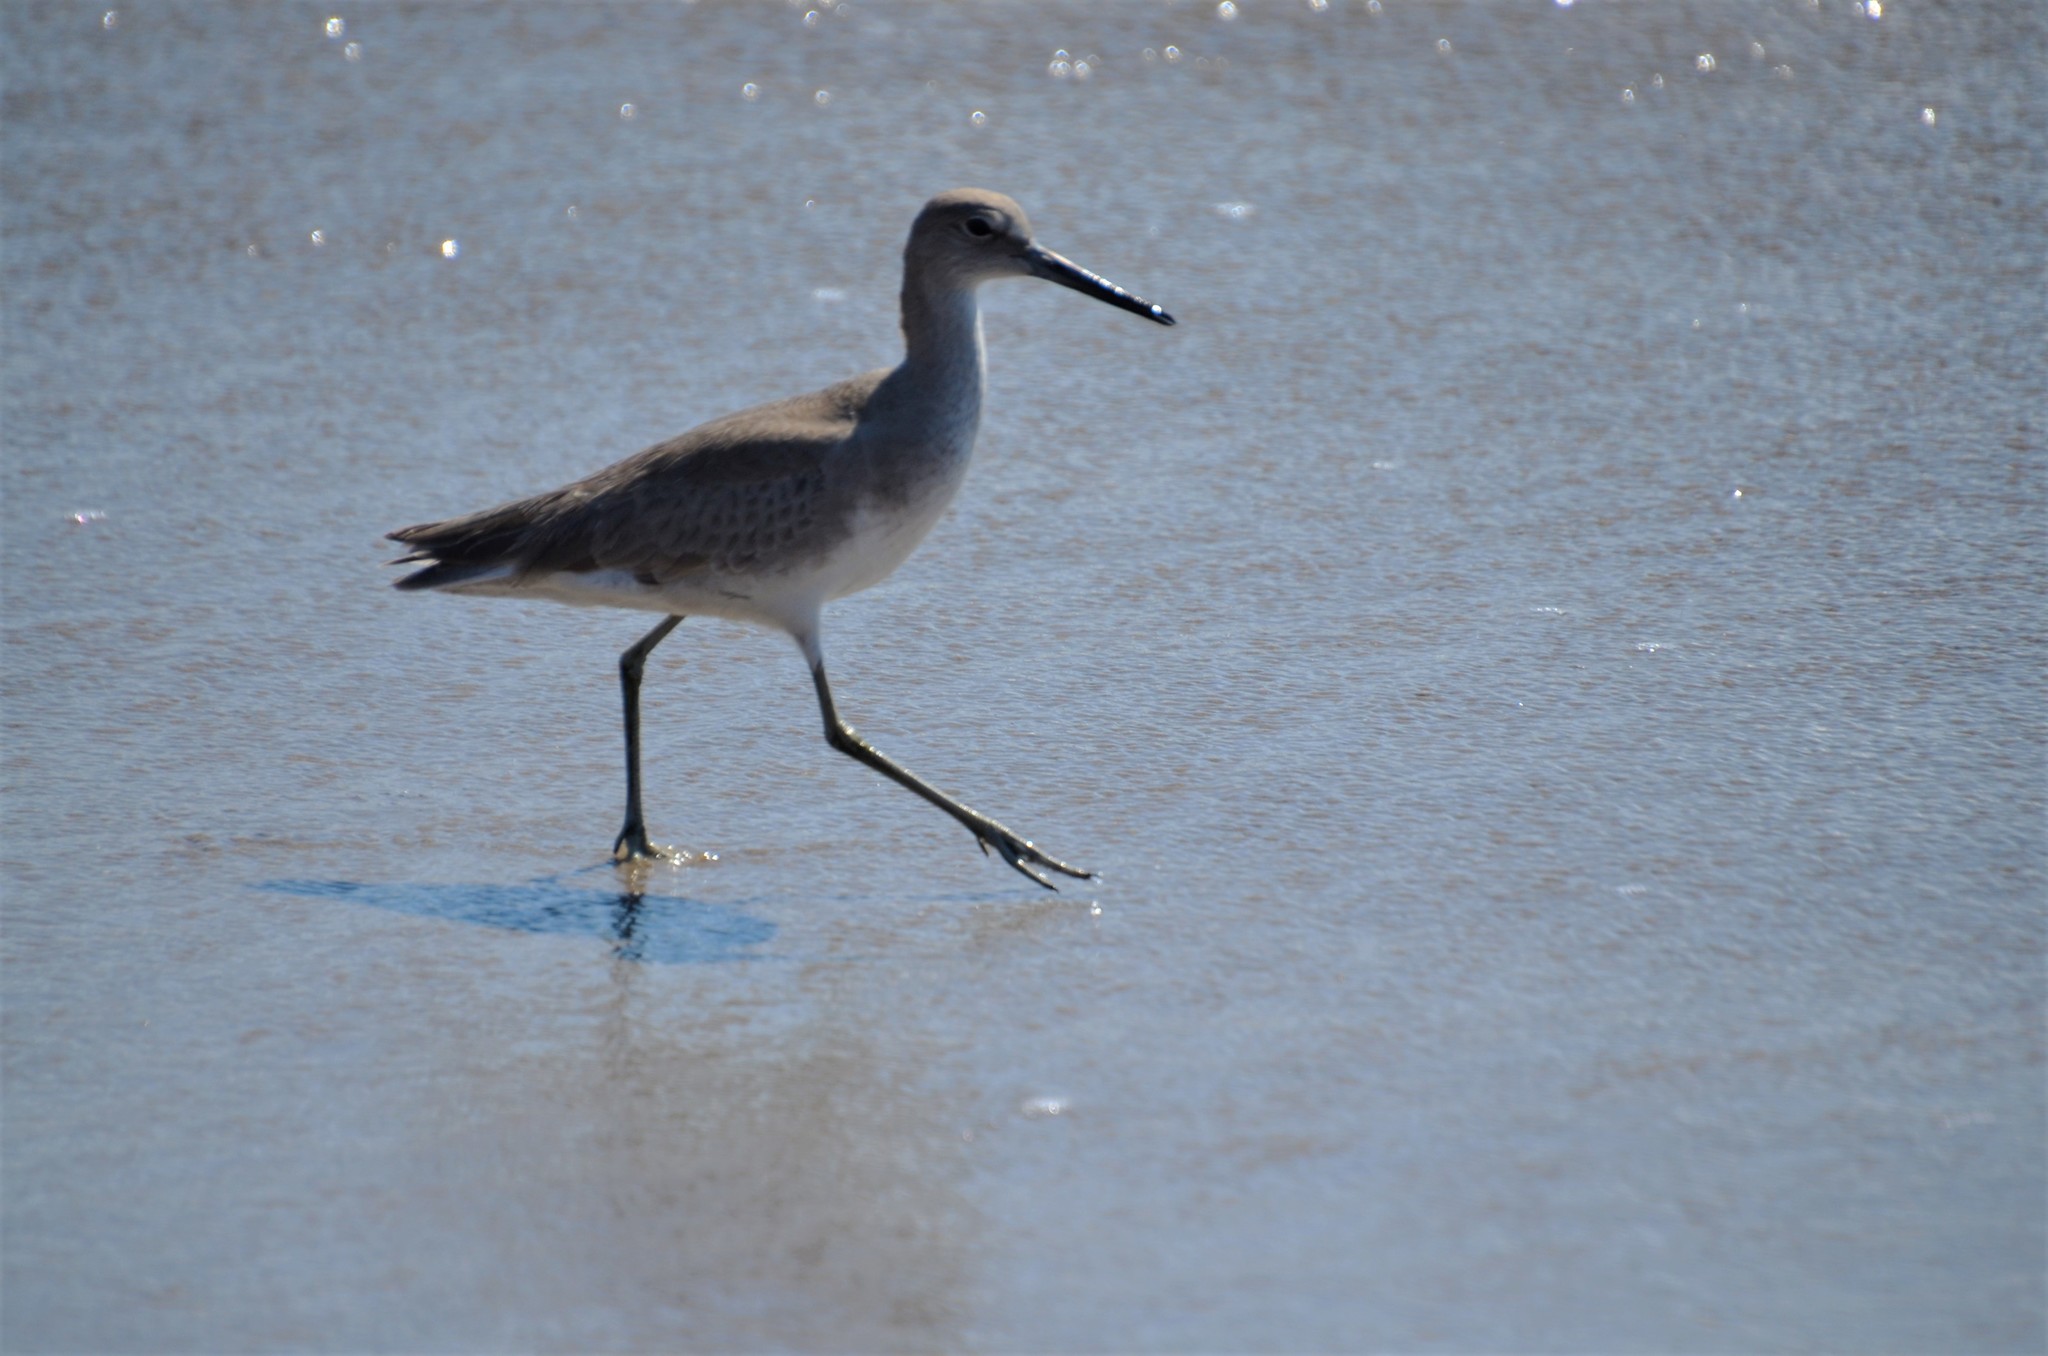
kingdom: Animalia
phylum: Chordata
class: Aves
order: Charadriiformes
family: Scolopacidae
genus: Tringa
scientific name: Tringa semipalmata
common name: Willet
